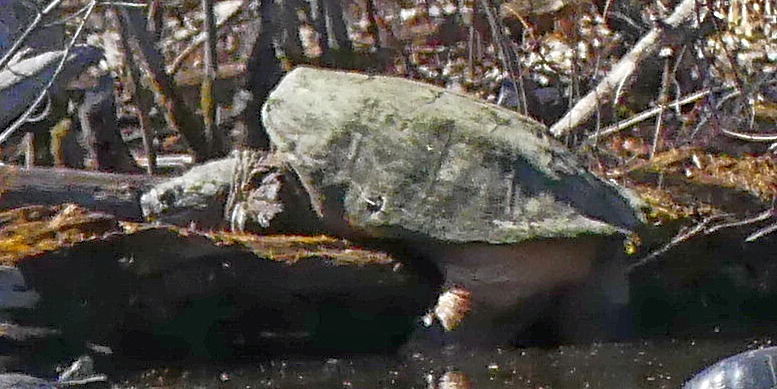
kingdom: Animalia
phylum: Chordata
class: Testudines
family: Chelydridae
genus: Chelydra
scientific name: Chelydra serpentina
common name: Common snapping turtle
